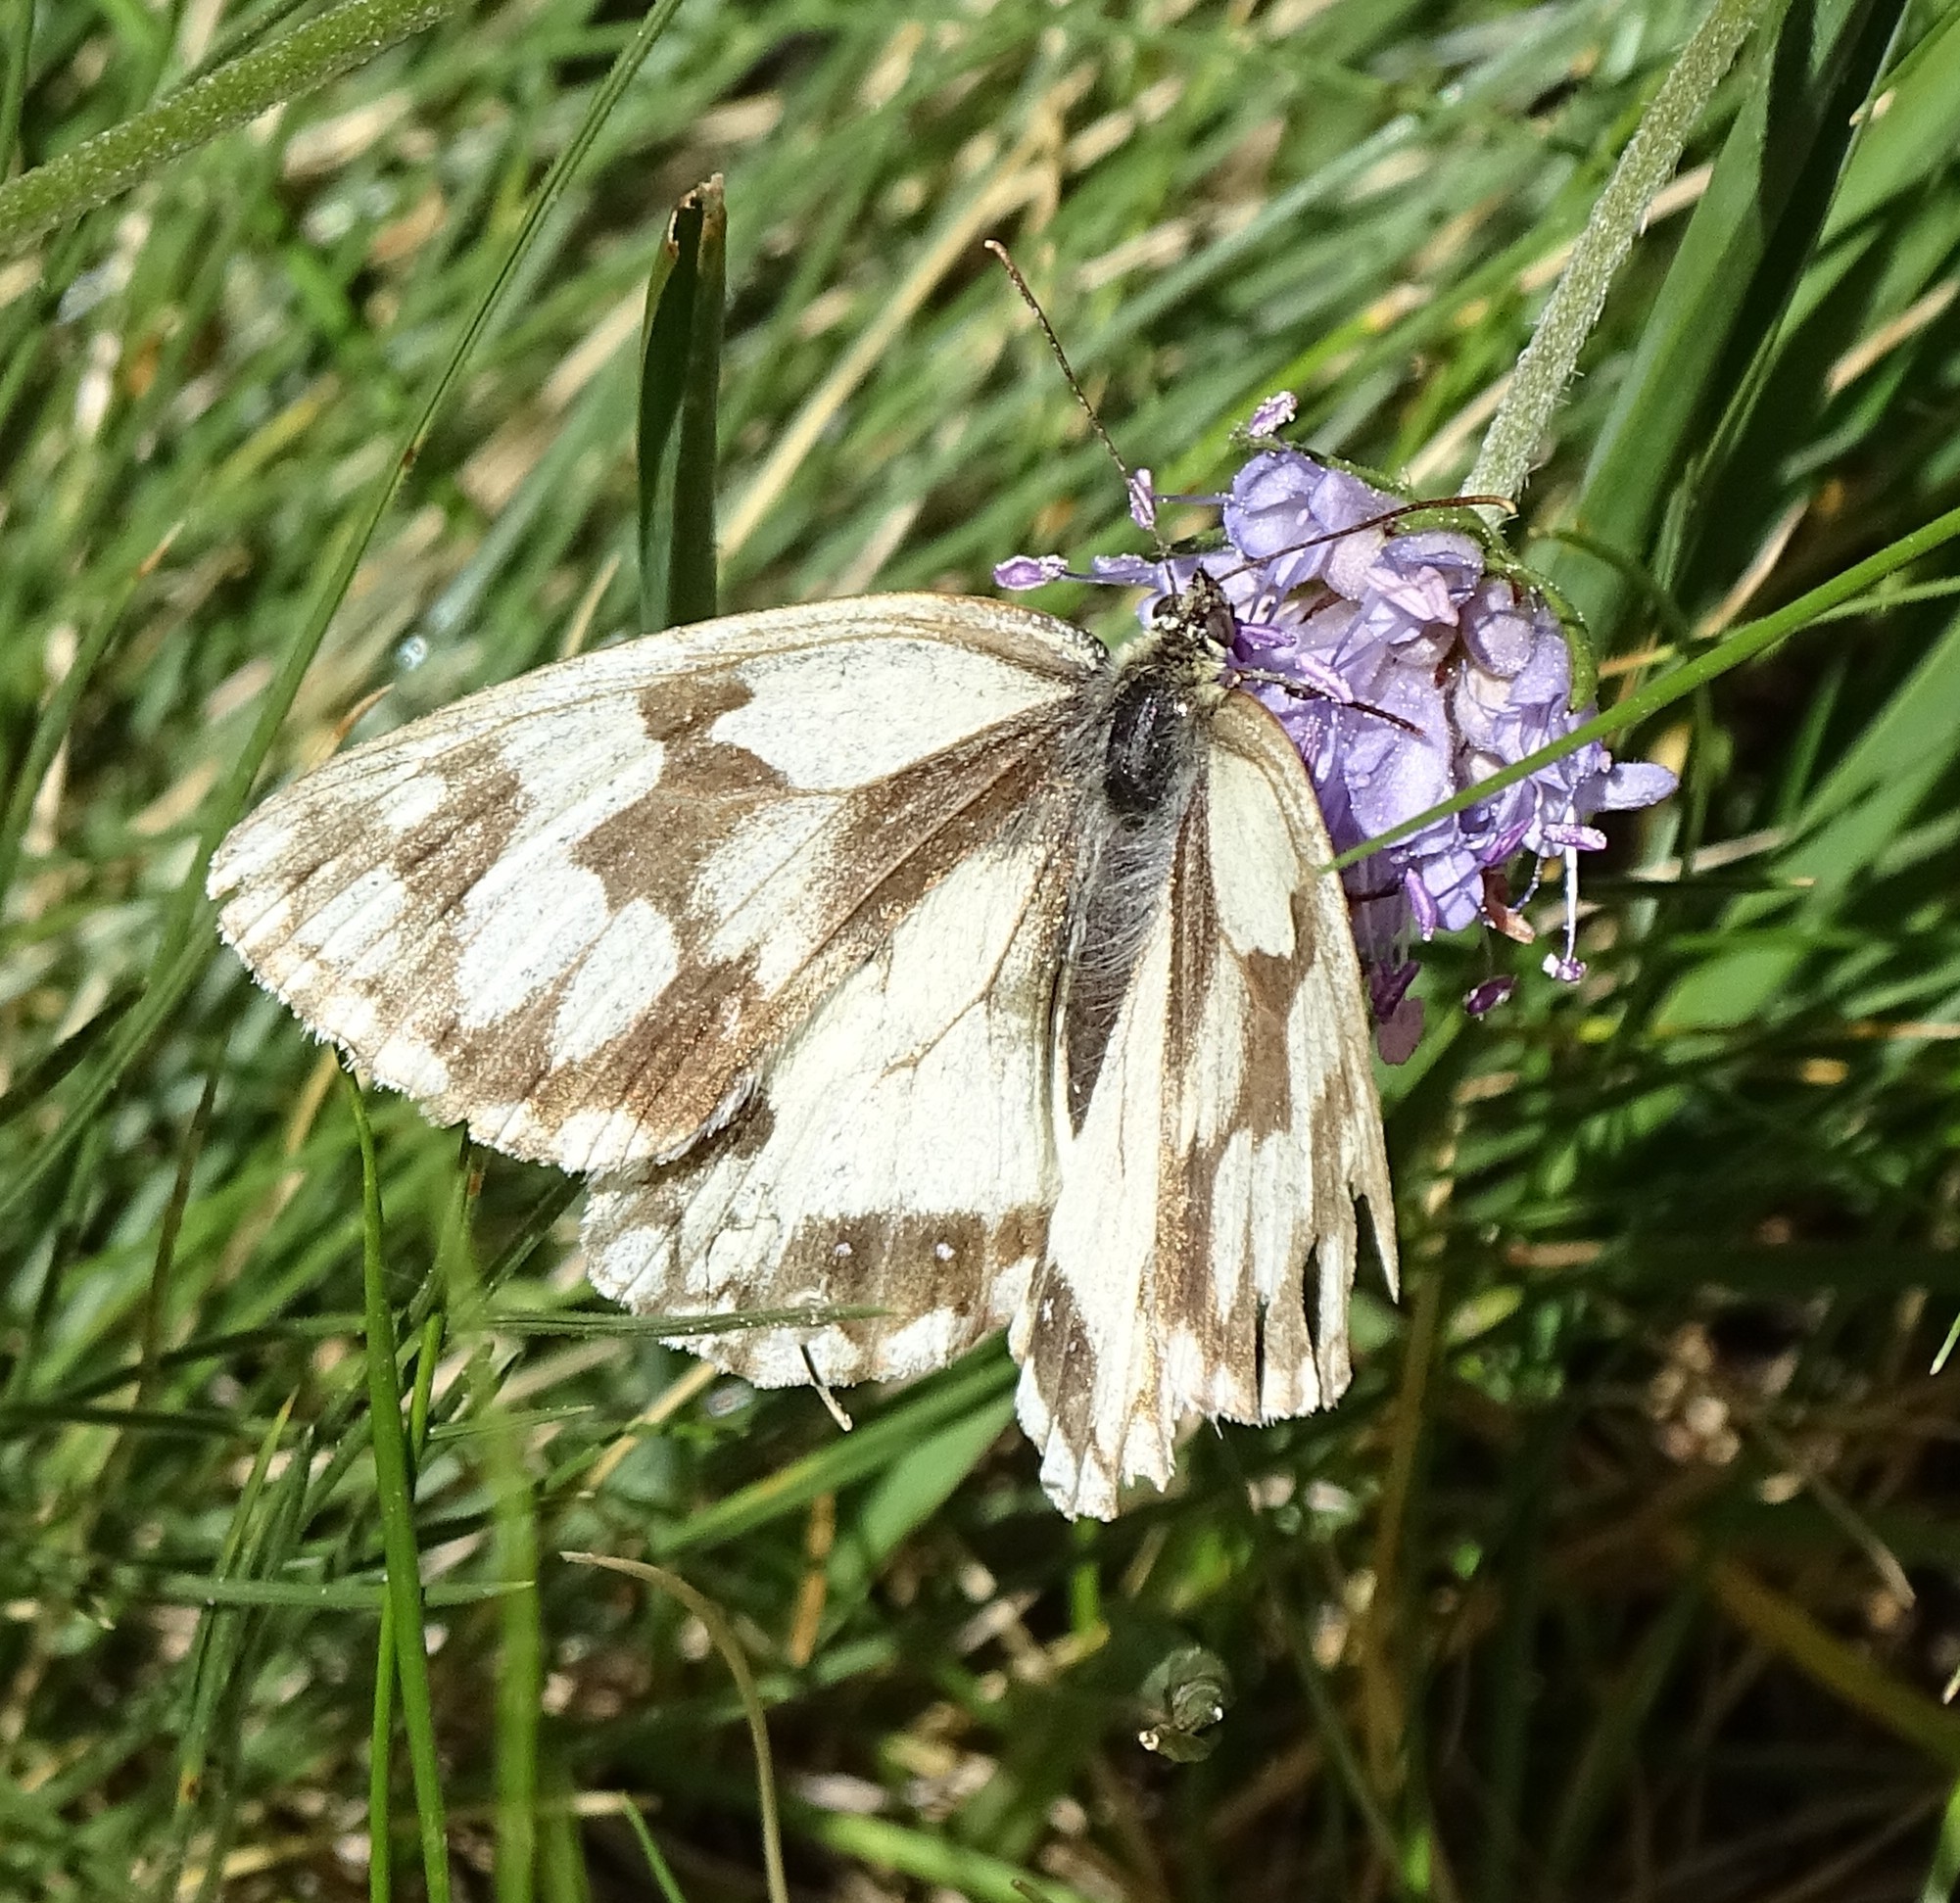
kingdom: Animalia
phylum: Arthropoda
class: Insecta
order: Lepidoptera
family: Nymphalidae
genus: Melanargia
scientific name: Melanargia lachesis
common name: Iberian marbled white
